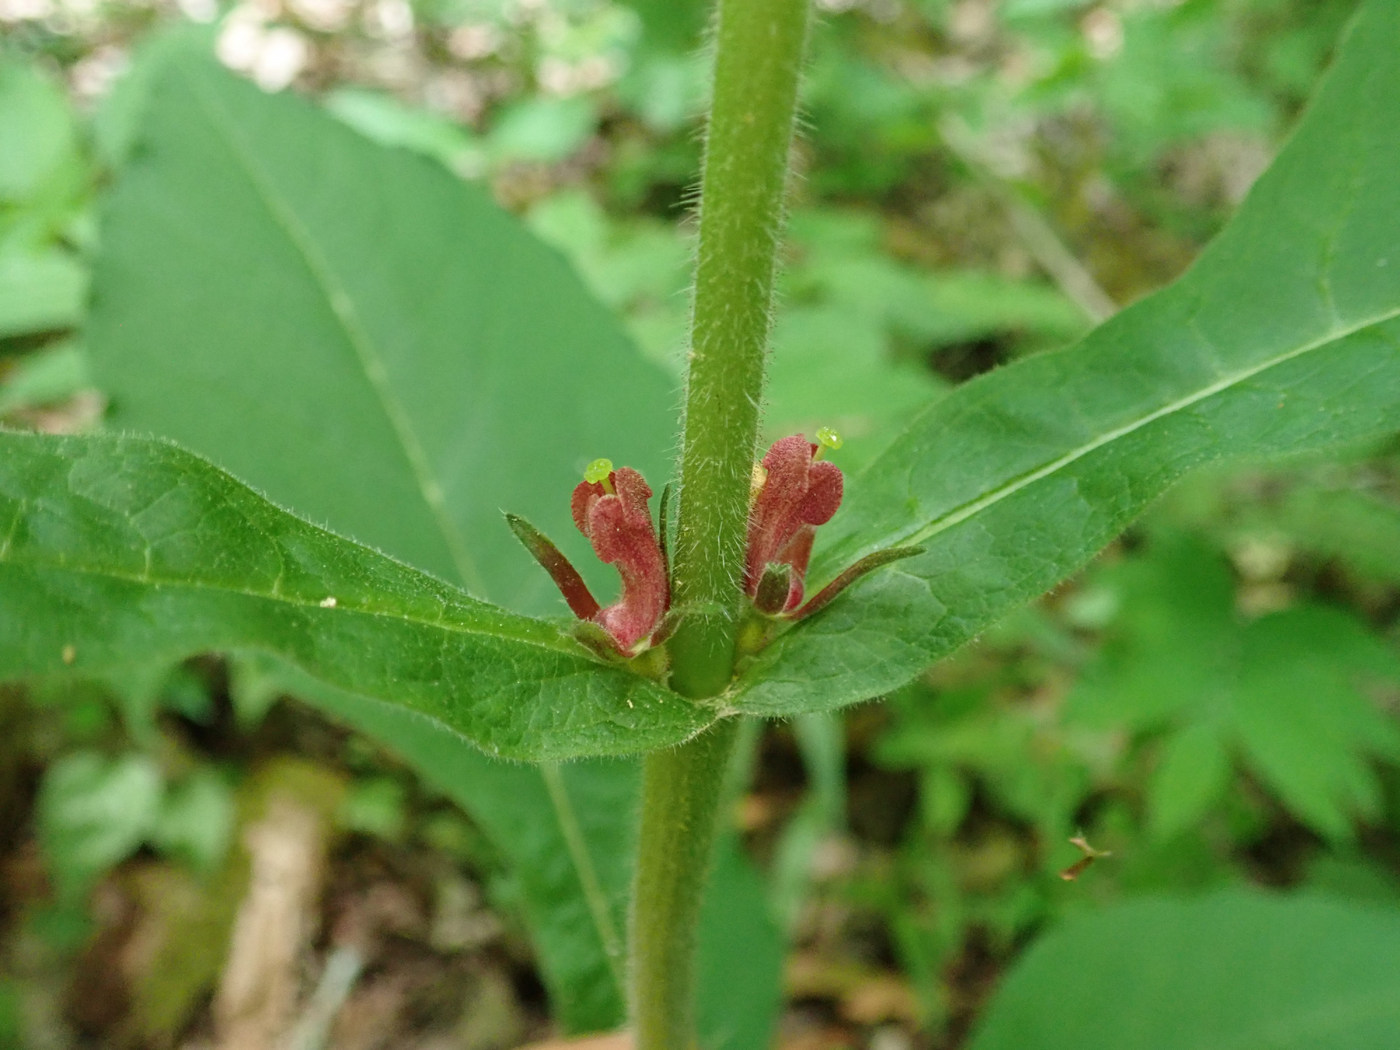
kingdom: Plantae
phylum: Tracheophyta
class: Magnoliopsida
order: Dipsacales
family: Caprifoliaceae
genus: Triosteum
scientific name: Triosteum aurantiacum
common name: Coffee tinker's-weed
